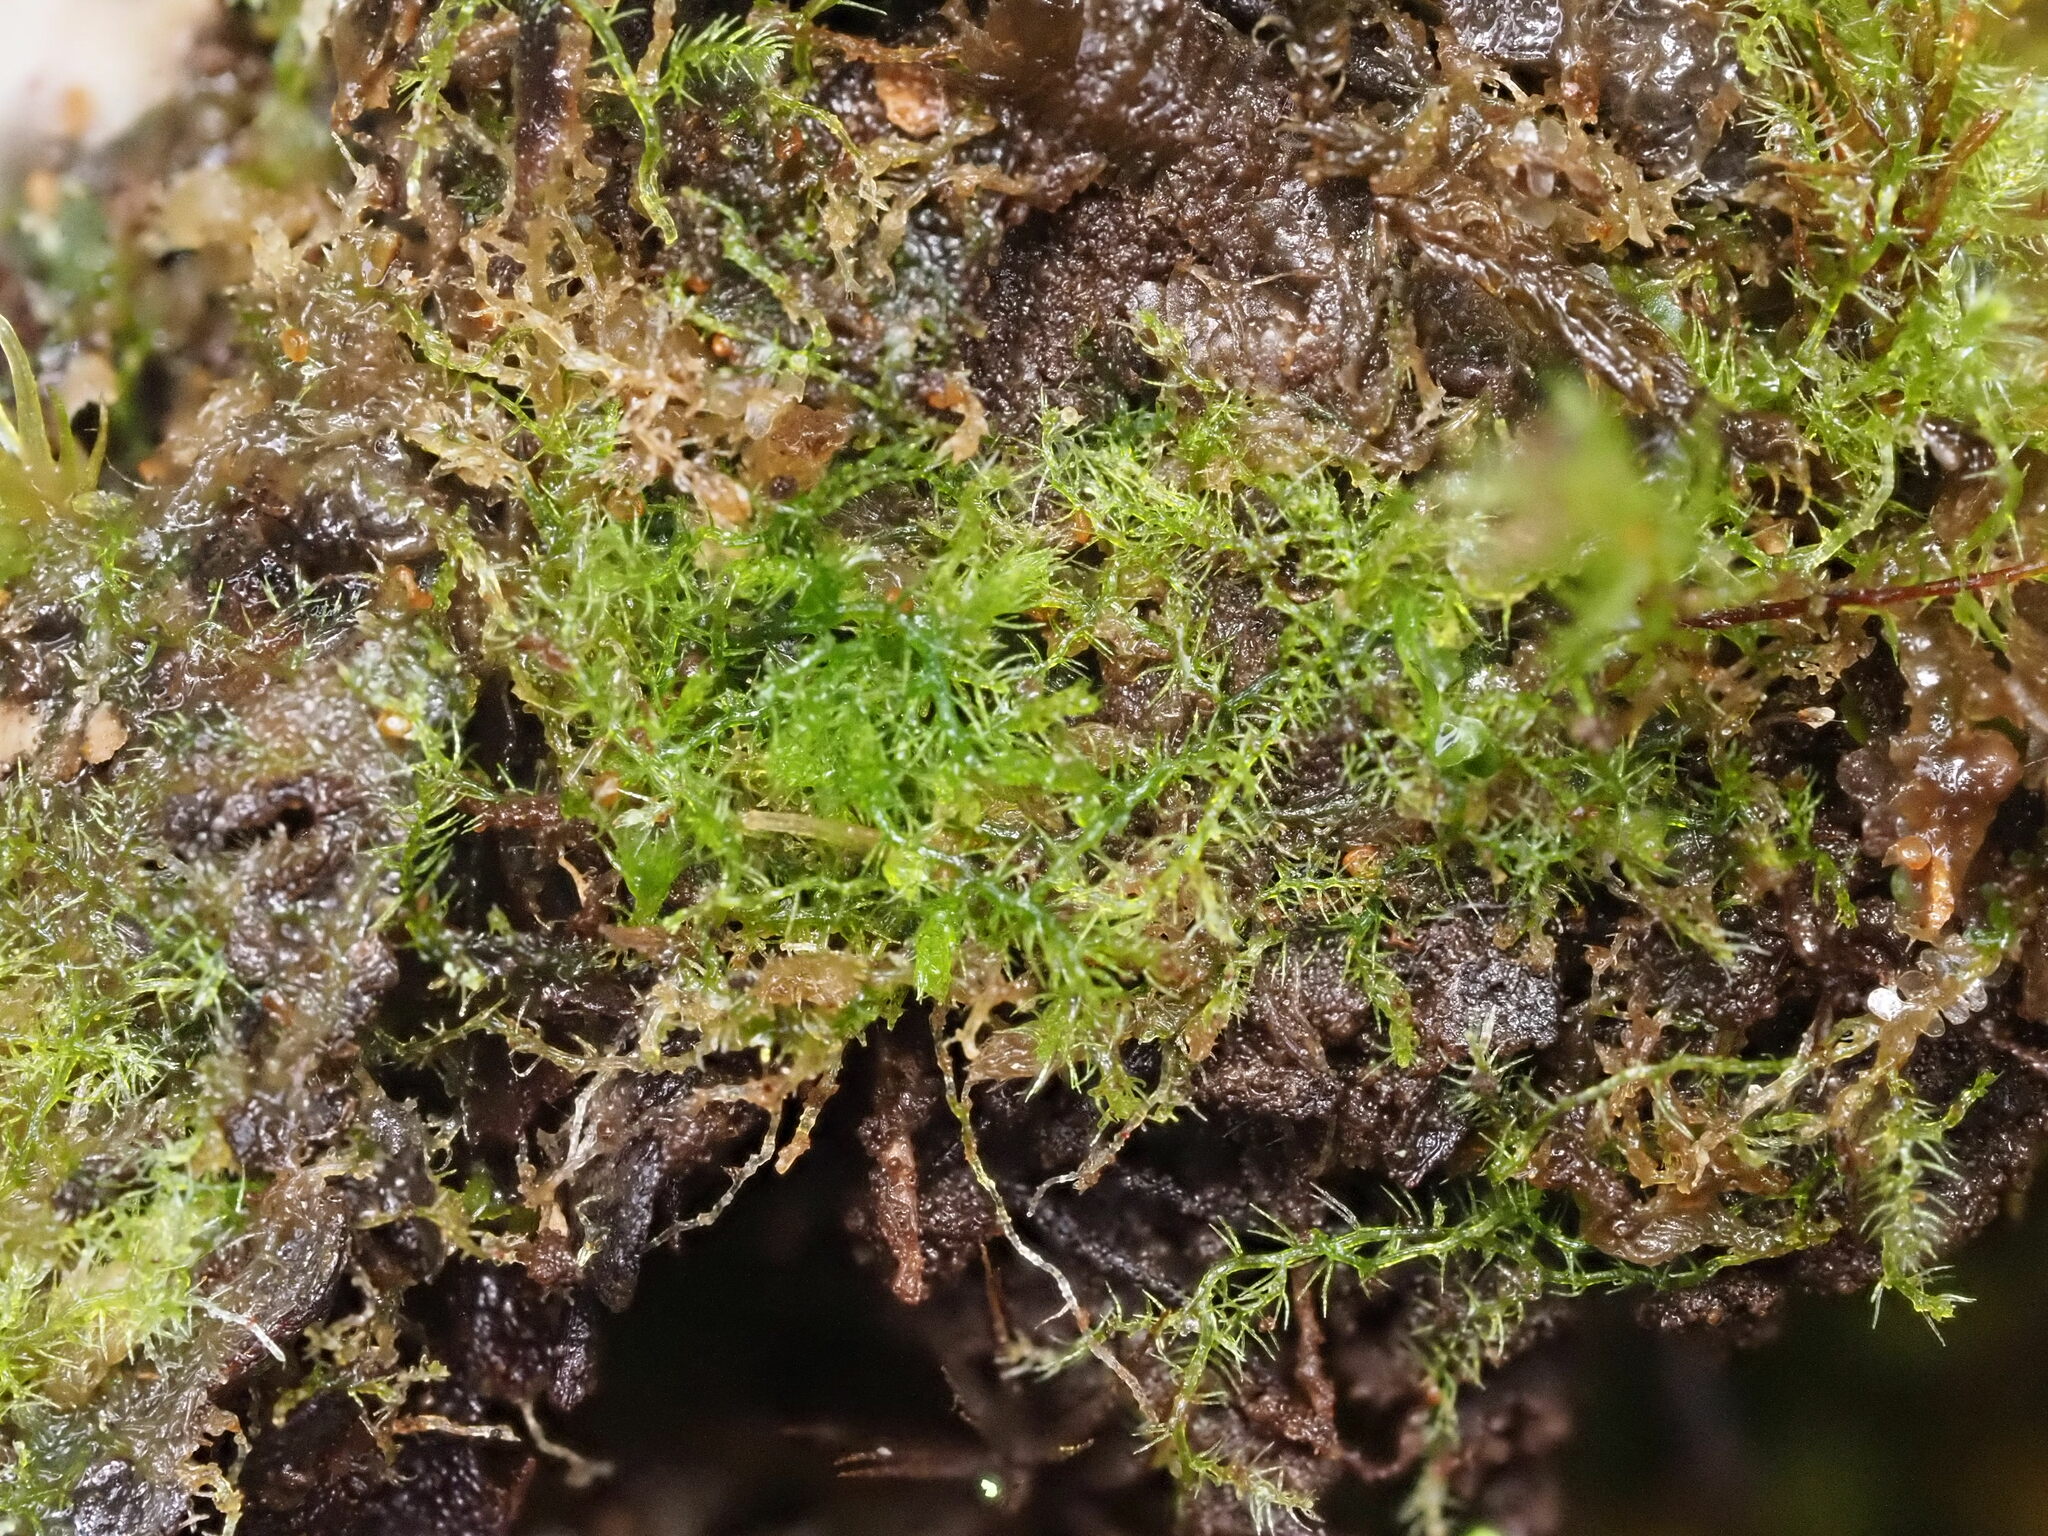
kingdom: Plantae
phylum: Marchantiophyta
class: Jungermanniopsida
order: Jungermanniales
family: Lepidoziaceae
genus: Telaranea
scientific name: Telaranea nematodes
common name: Irish threadwort
